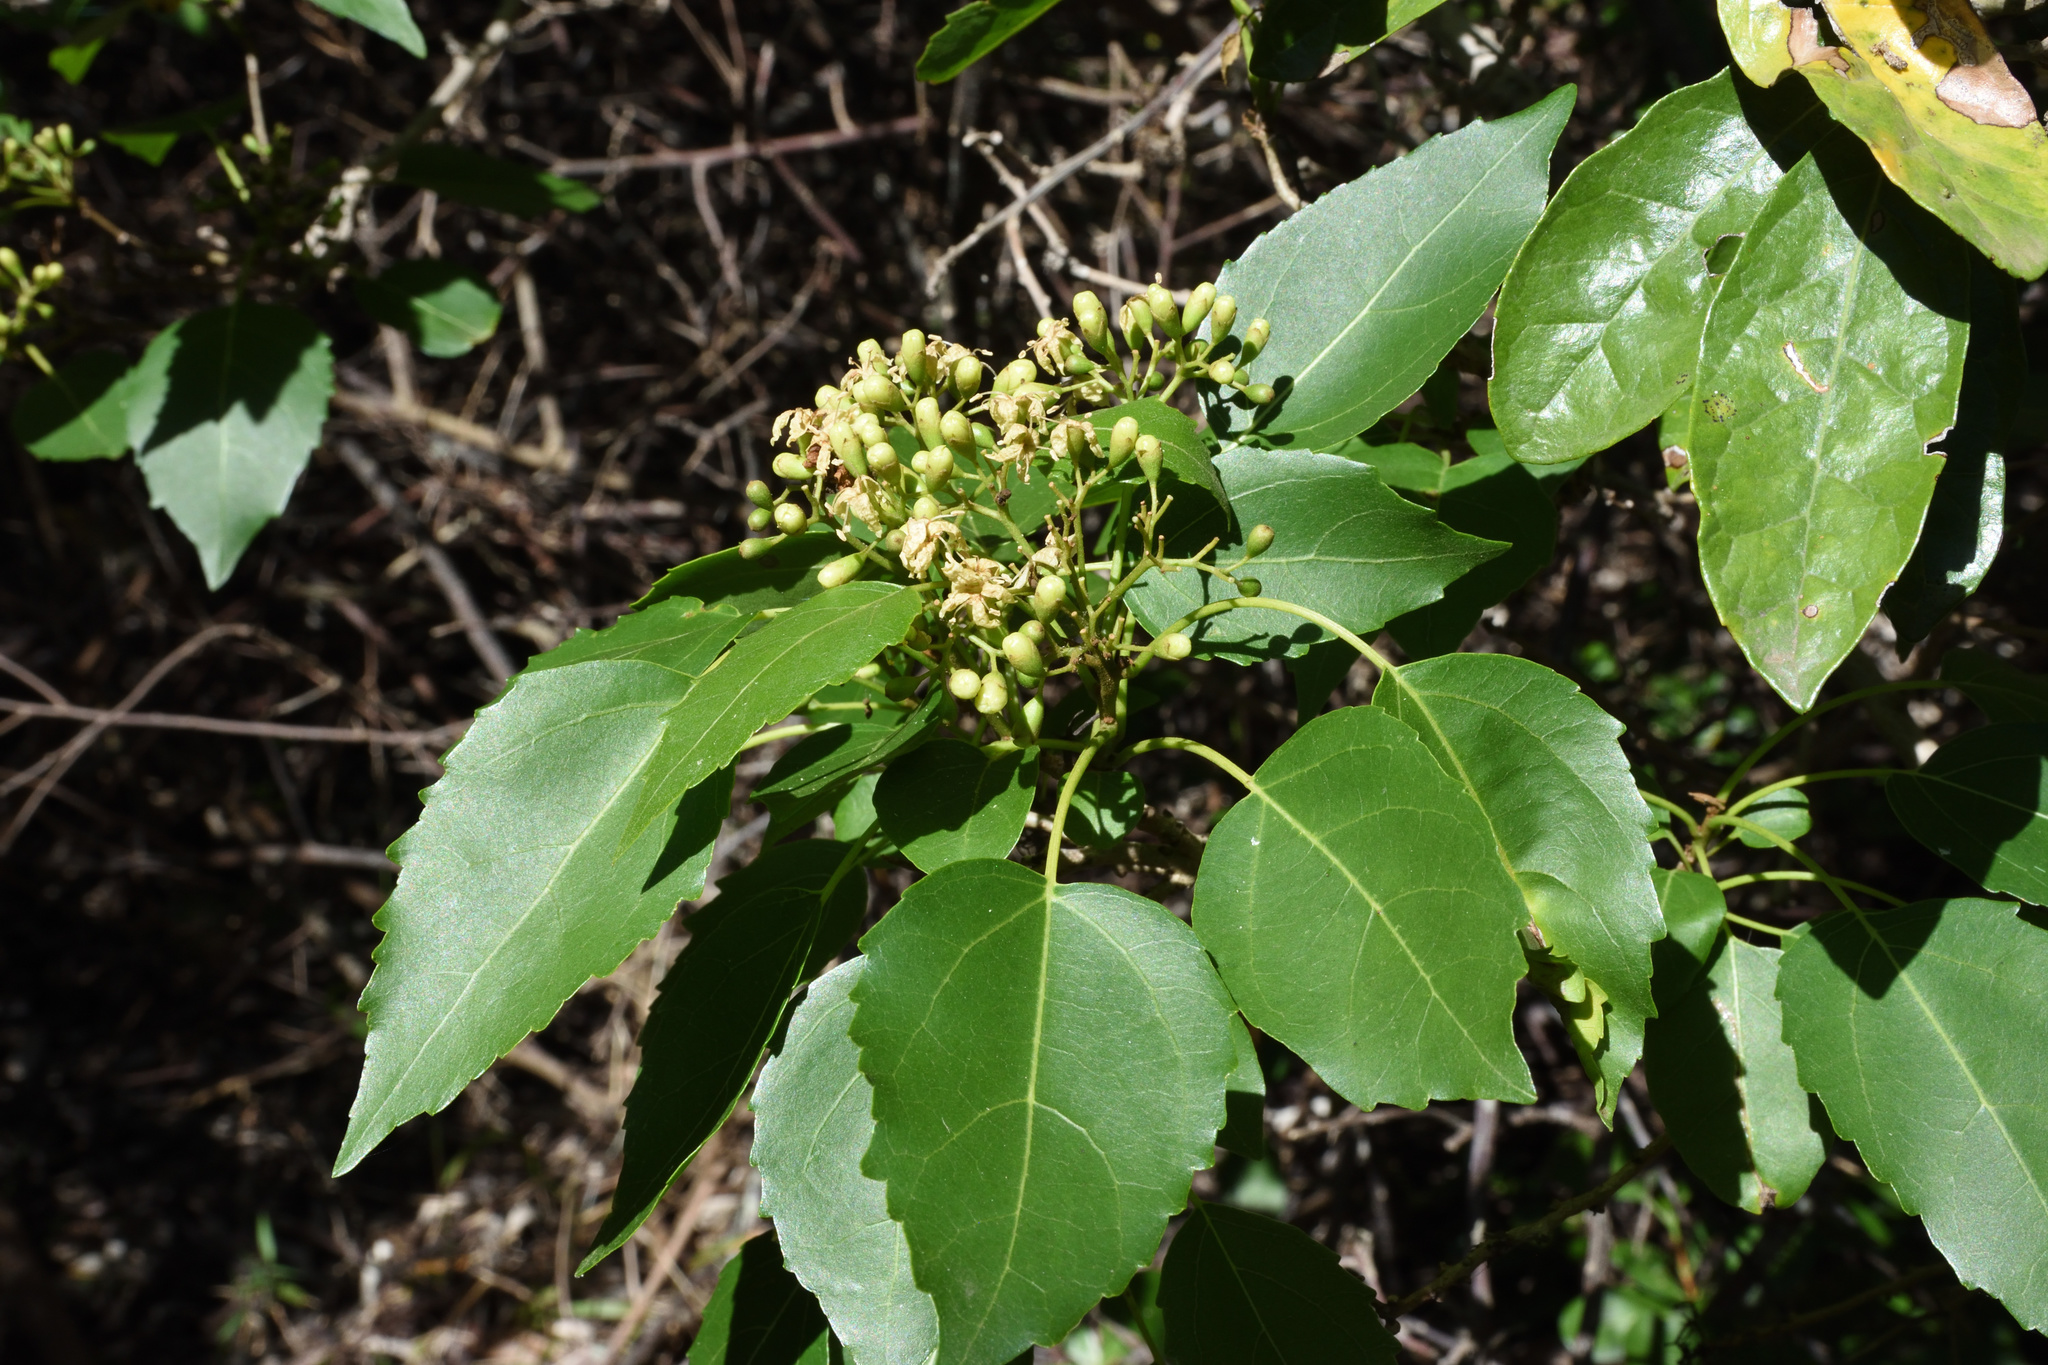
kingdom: Plantae
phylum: Tracheophyta
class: Magnoliopsida
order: Boraginales
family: Cordiaceae
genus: Cordia
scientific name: Cordia caffra
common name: Septee tree
